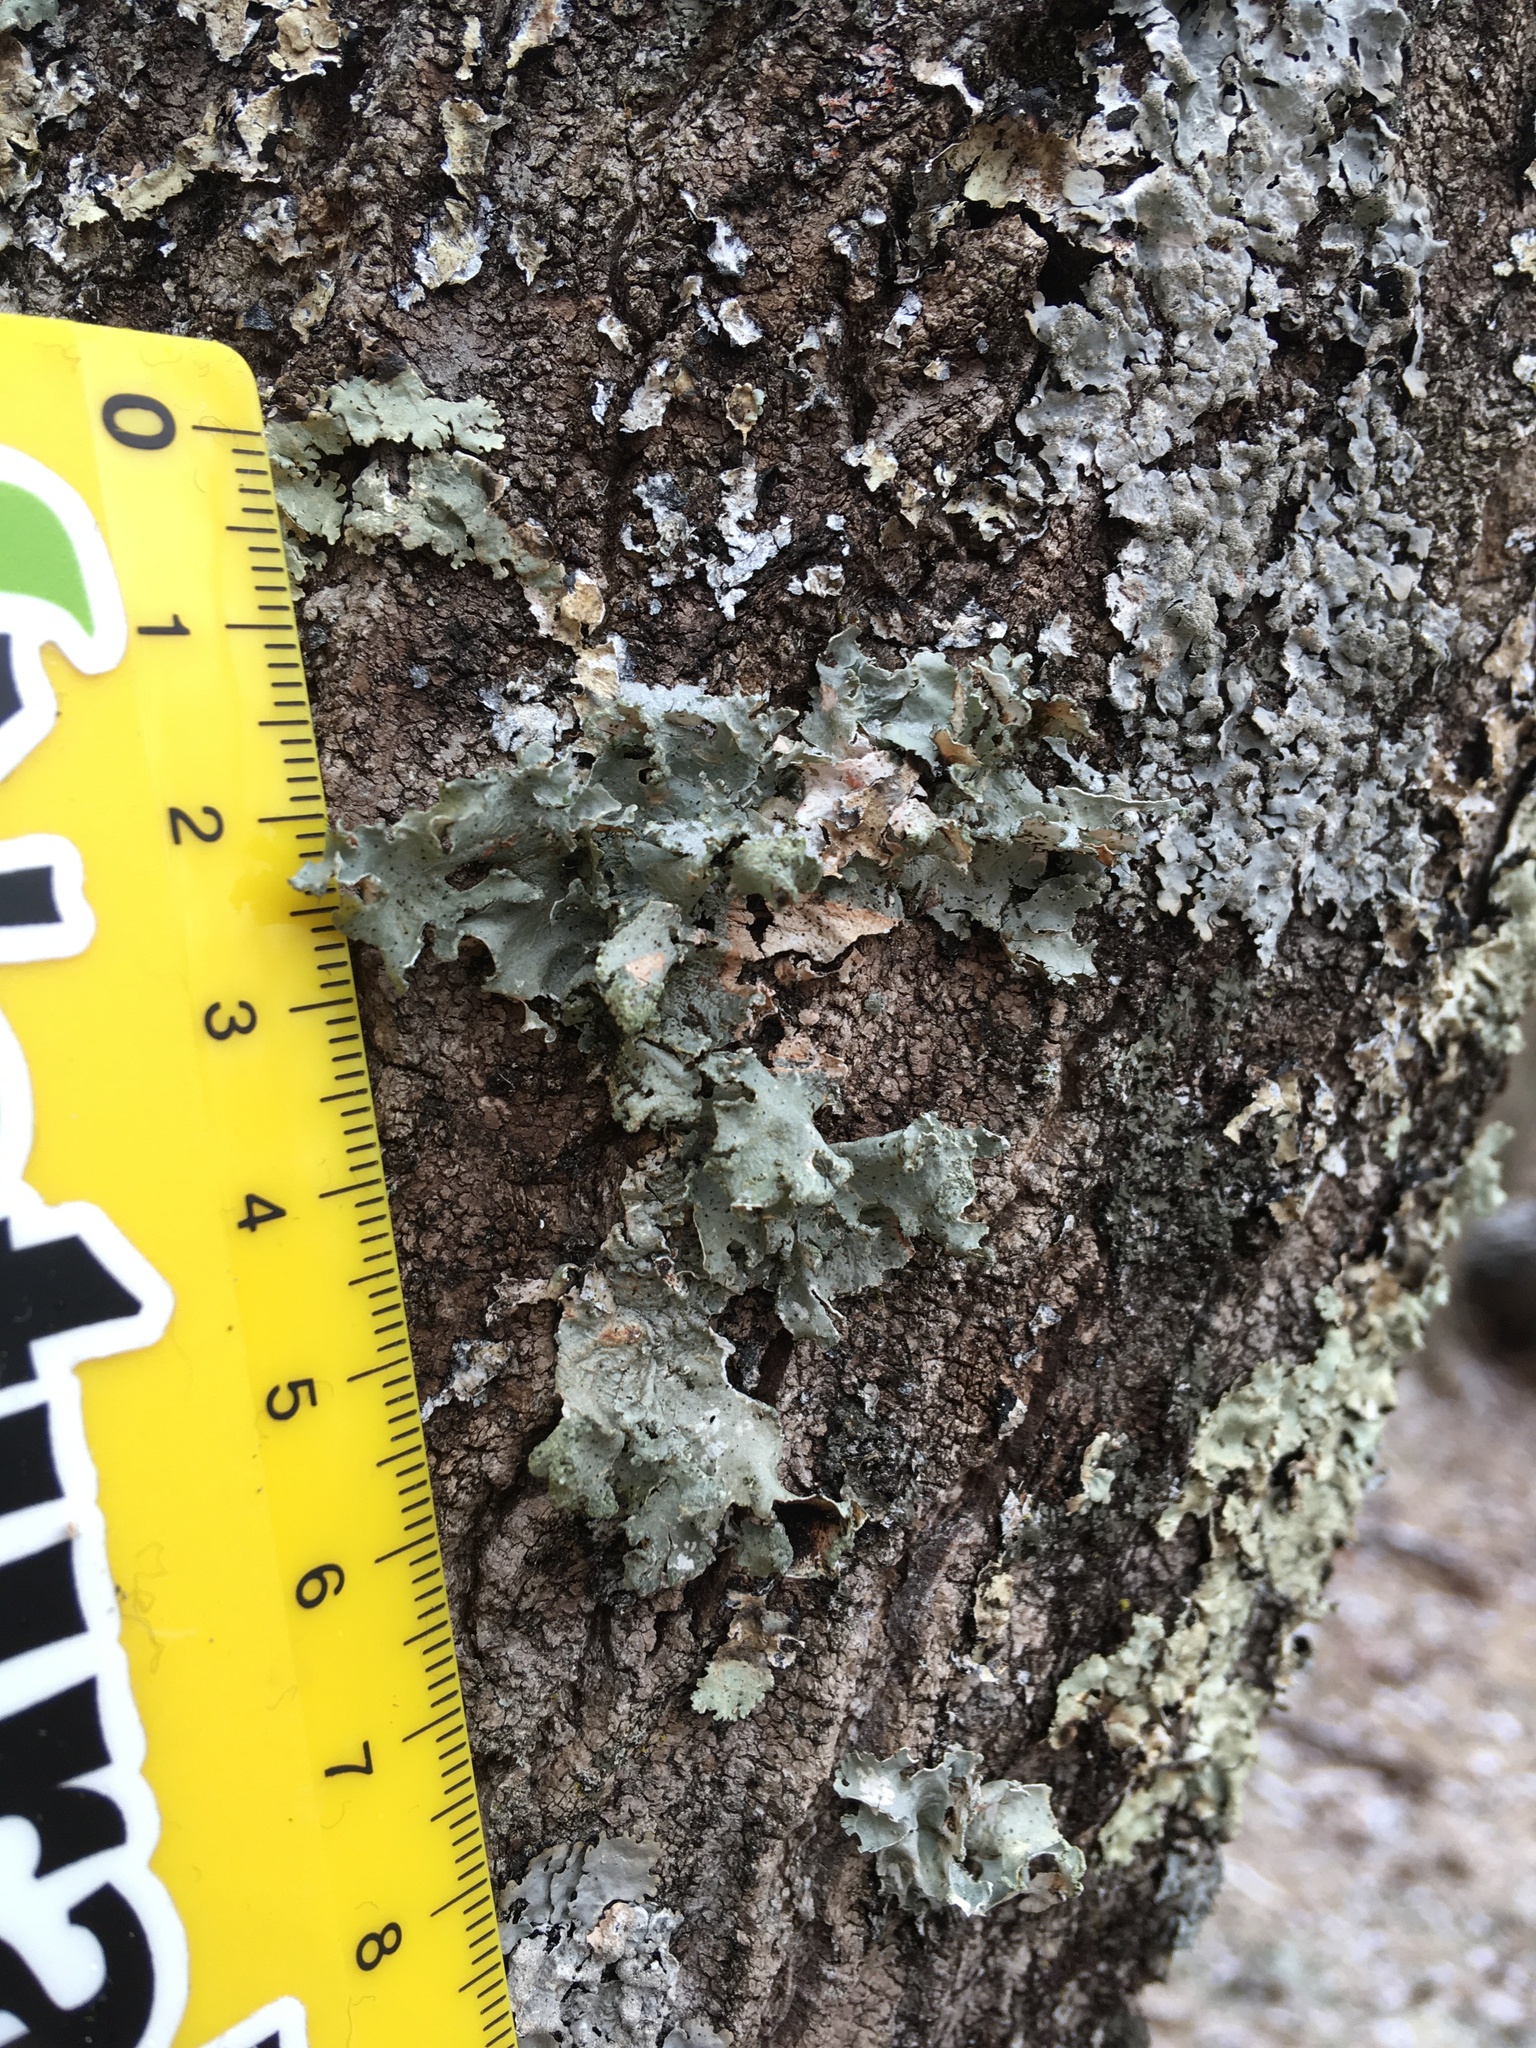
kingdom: Fungi
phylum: Ascomycota
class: Lecanoromycetes
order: Lecanorales
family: Parmeliaceae
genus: Parmotrema
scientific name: Parmotrema hypotropum
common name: Powdered ruffle lichen
